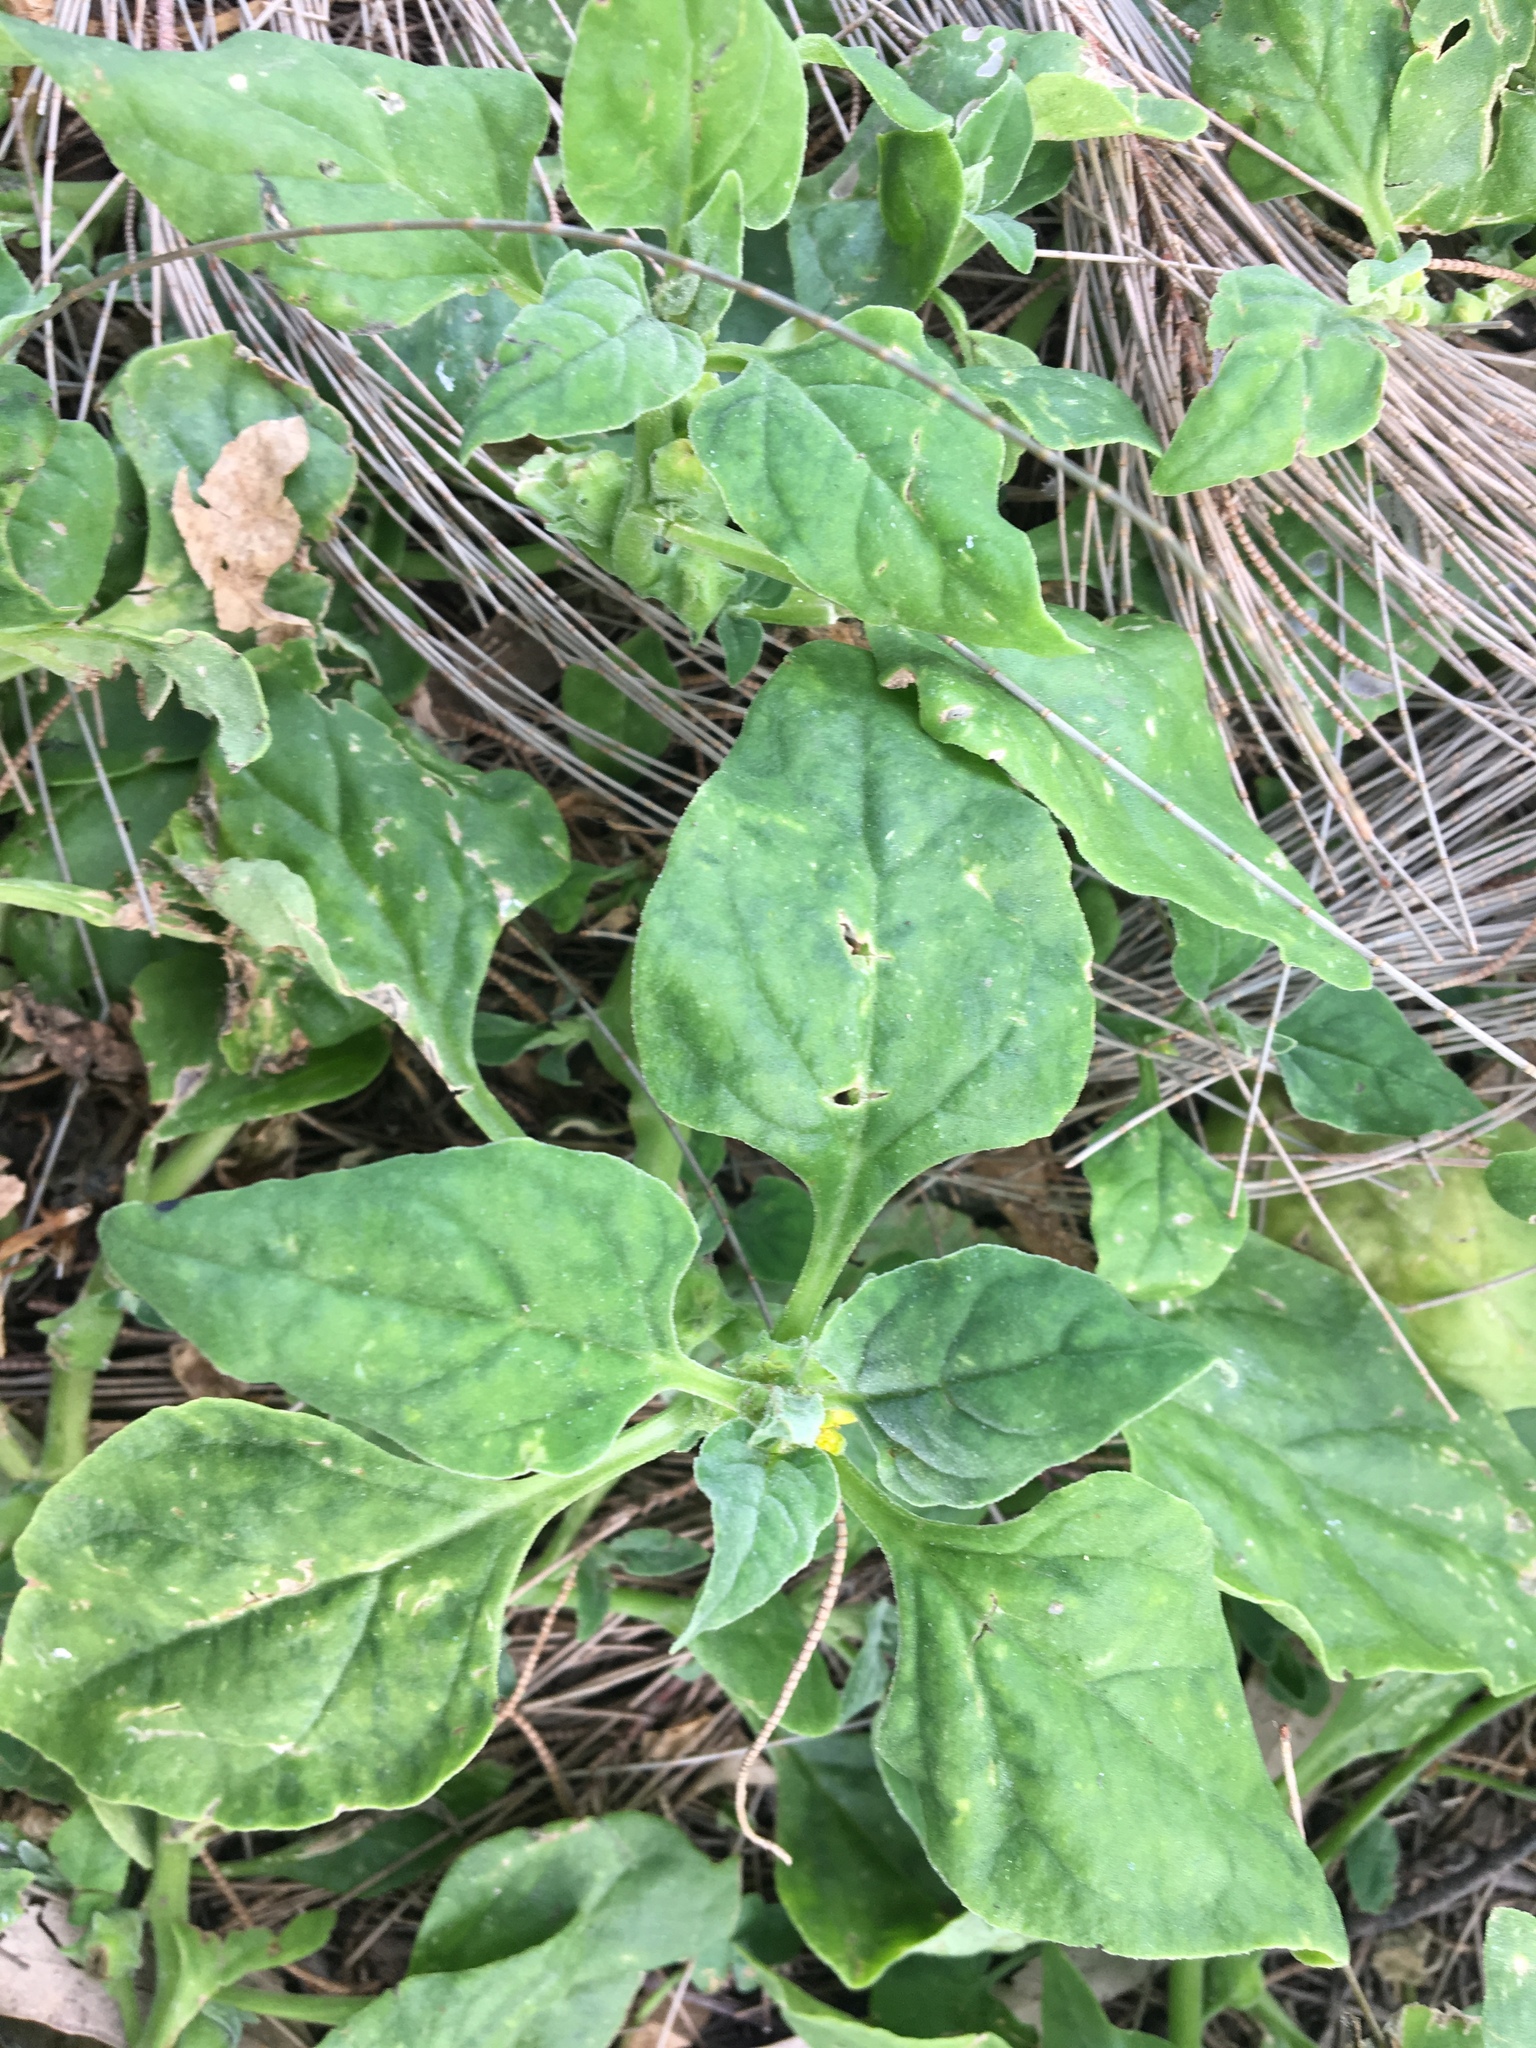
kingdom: Plantae
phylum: Tracheophyta
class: Magnoliopsida
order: Caryophyllales
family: Aizoaceae
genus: Tetragonia
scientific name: Tetragonia tetragonoides
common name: New zealand-spinach
